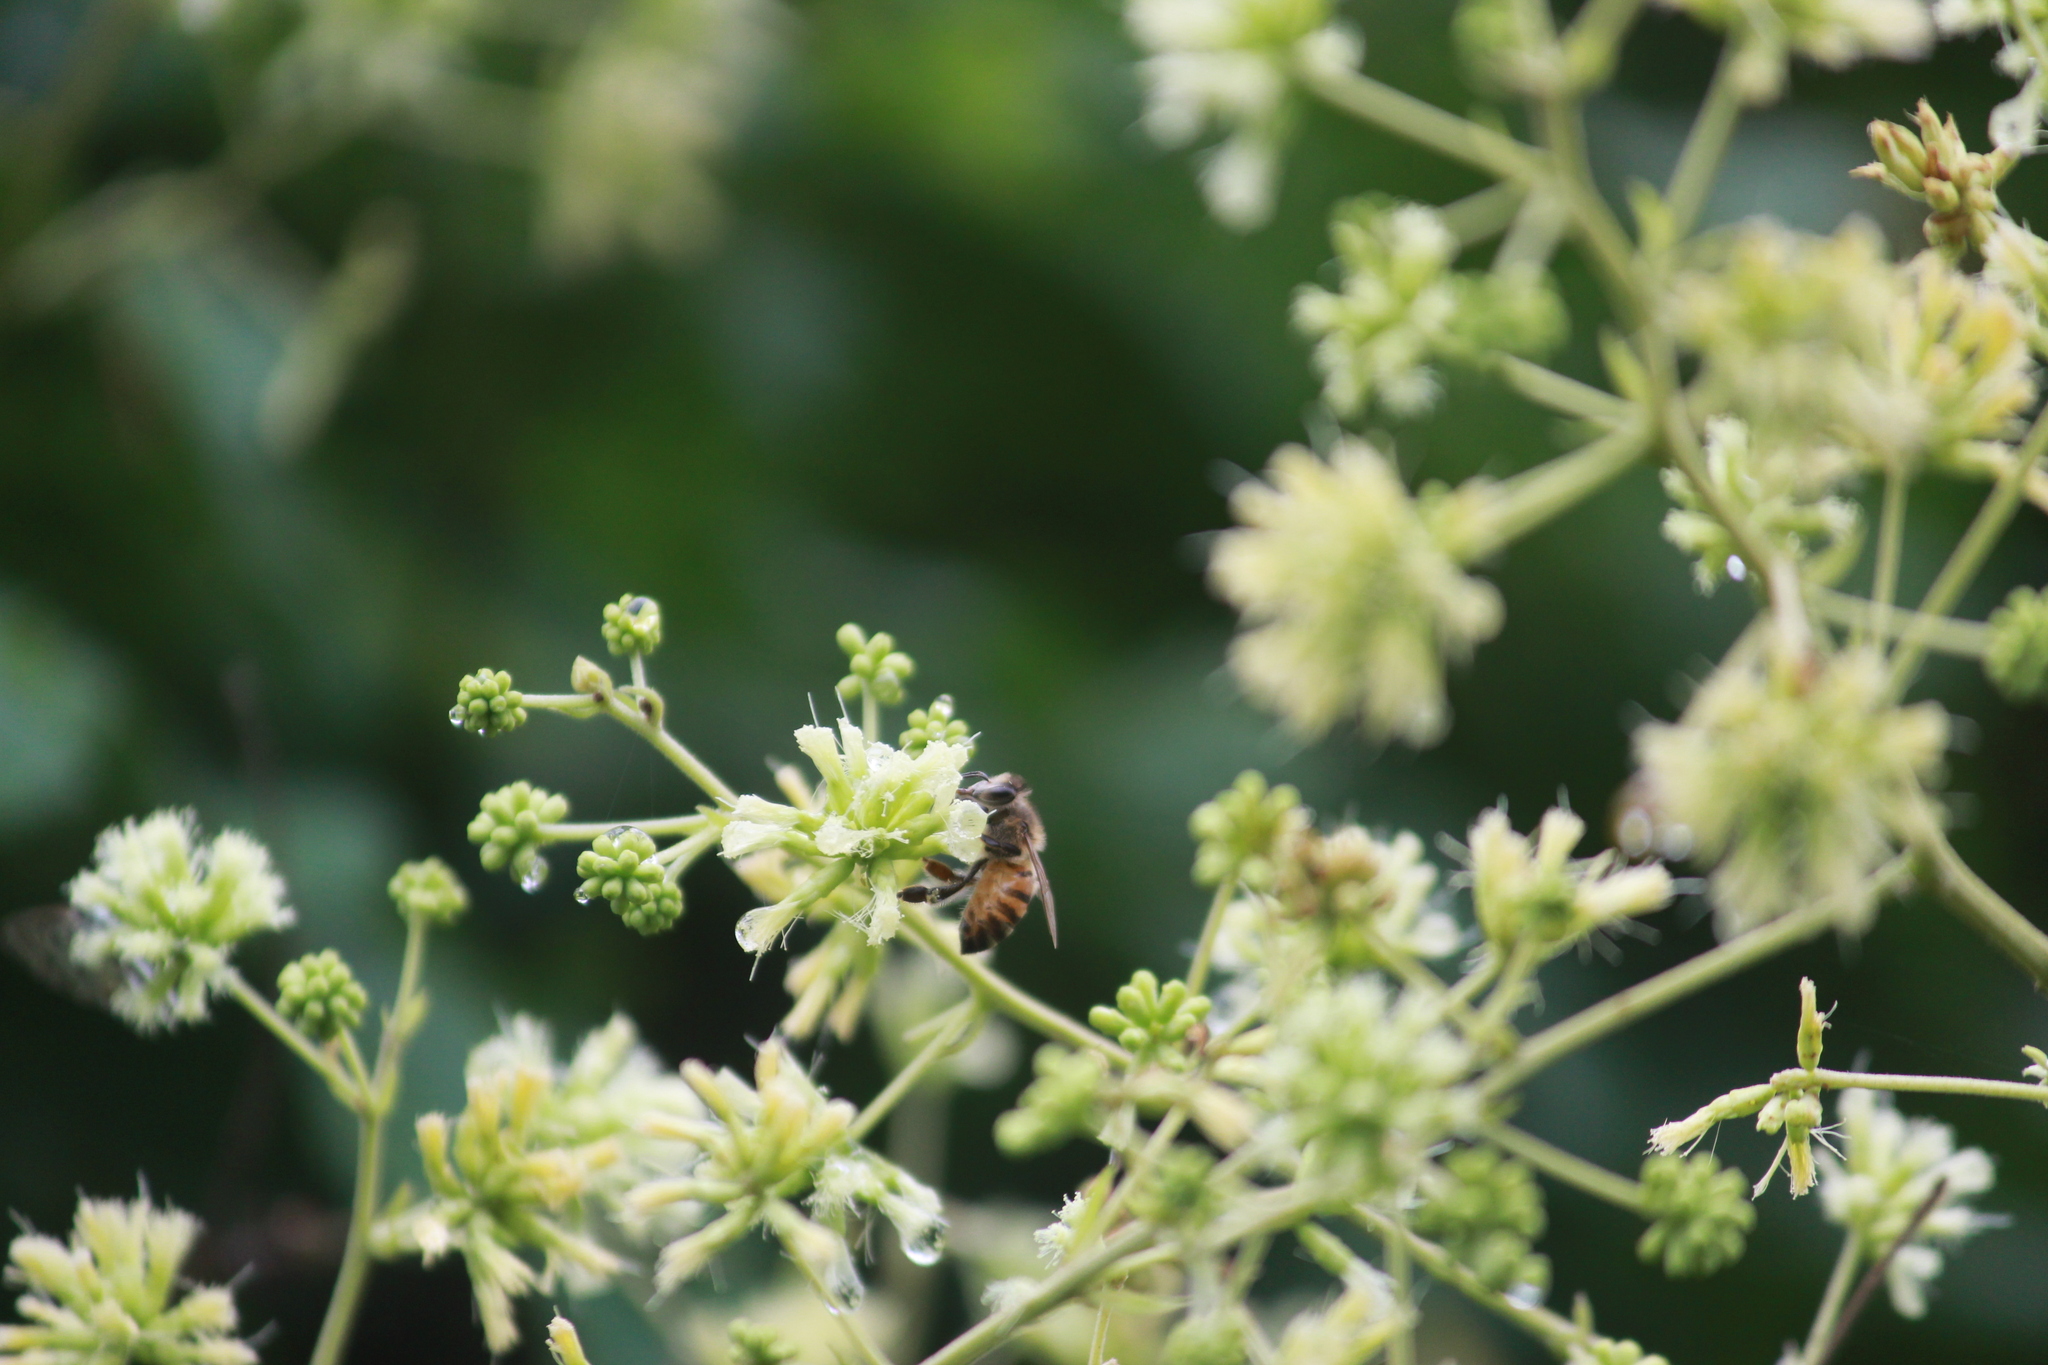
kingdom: Animalia
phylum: Arthropoda
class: Insecta
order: Hymenoptera
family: Apidae
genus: Apis
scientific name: Apis mellifera
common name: Honey bee
